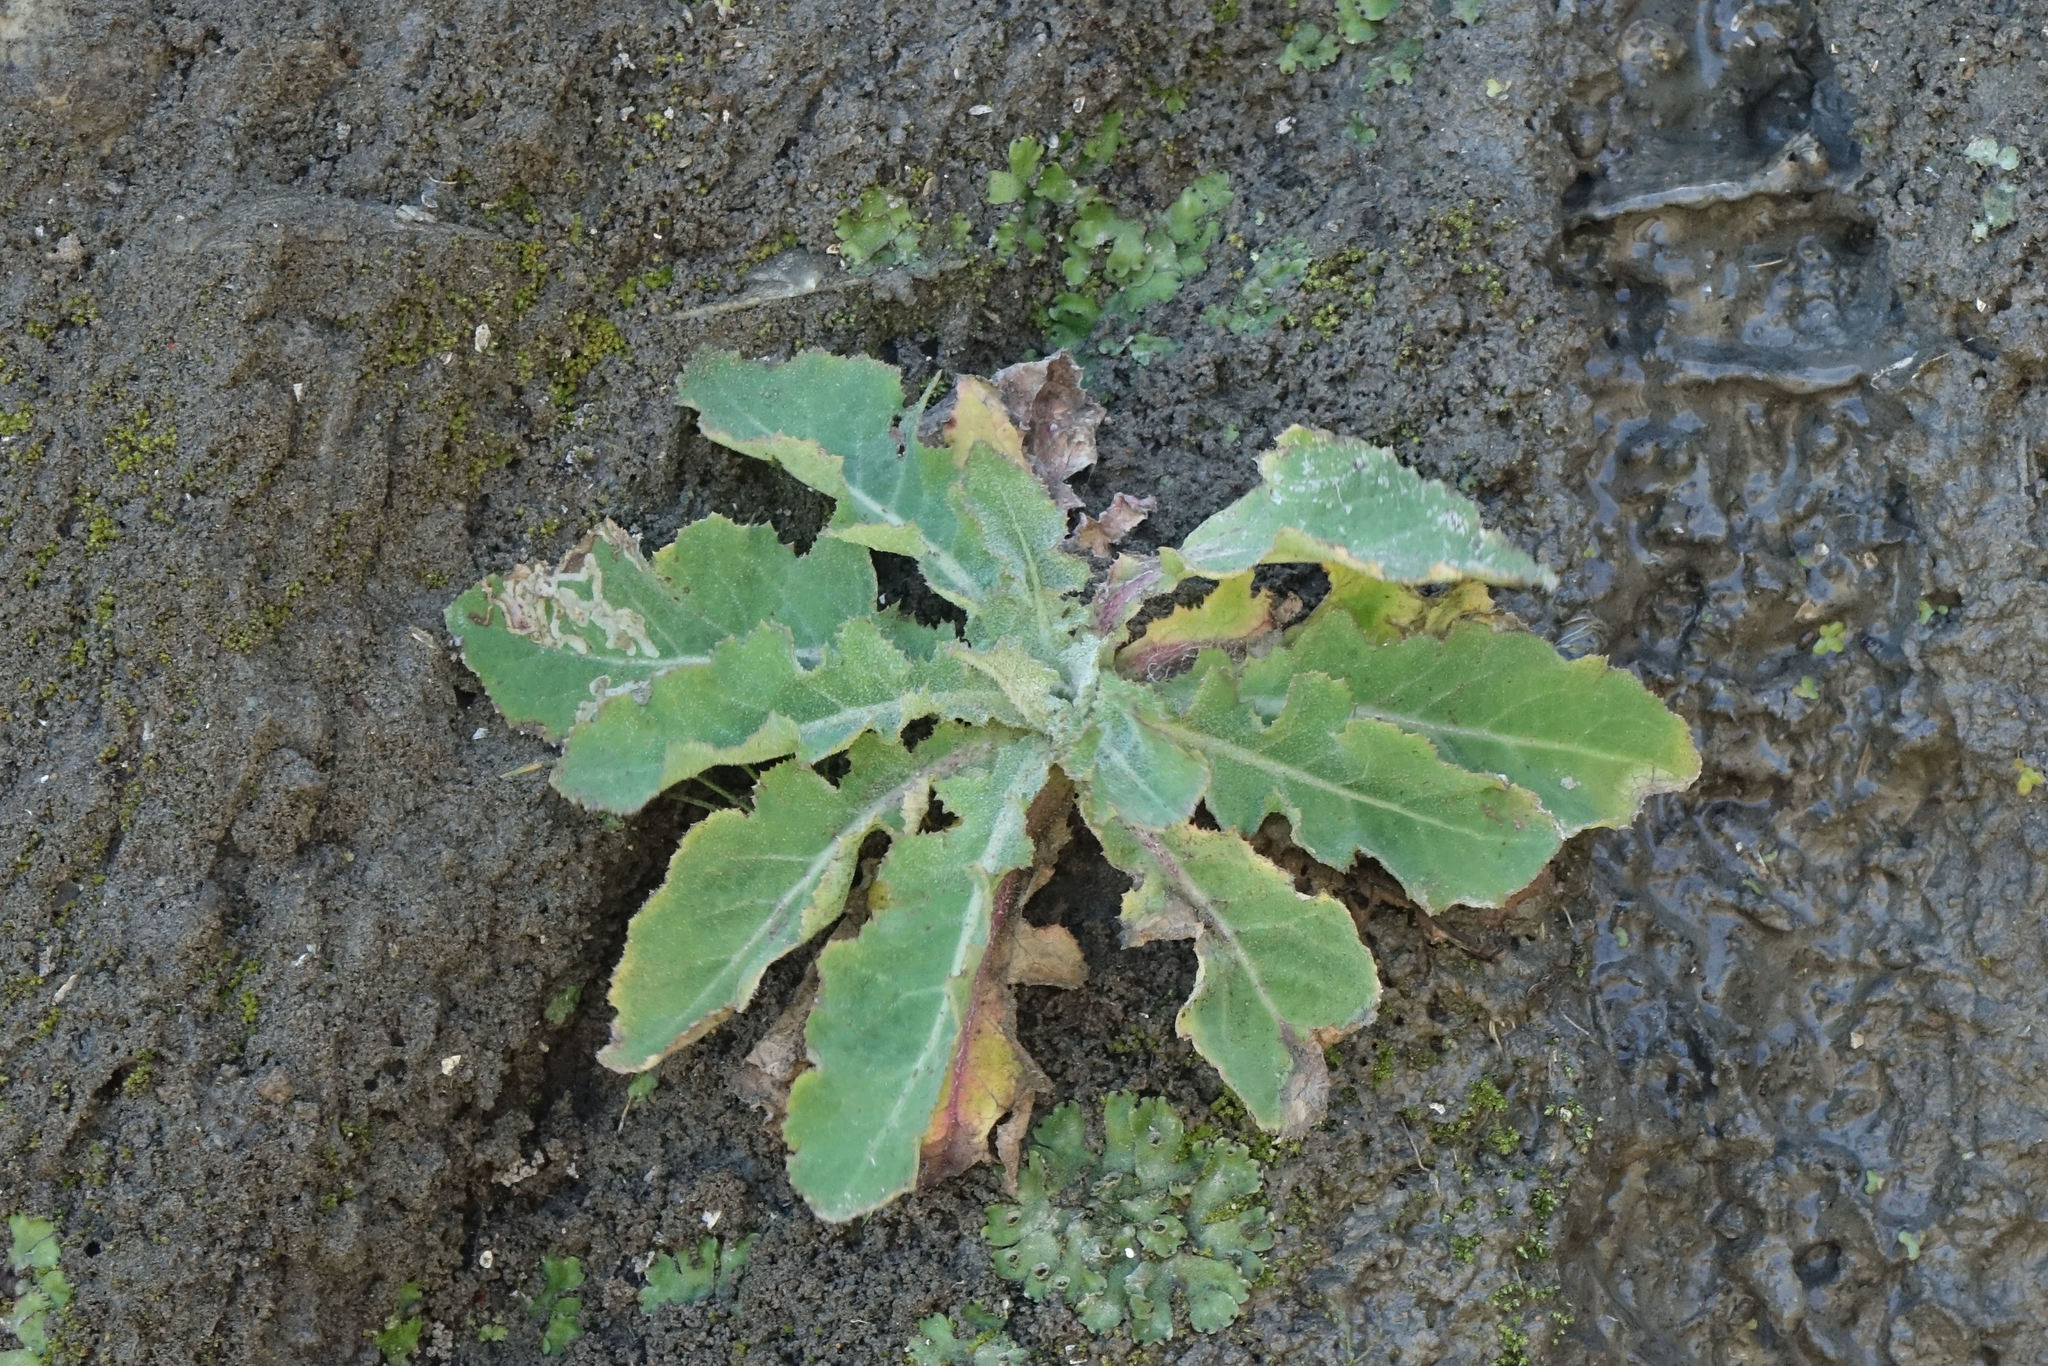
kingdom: Plantae
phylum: Tracheophyta
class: Magnoliopsida
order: Asterales
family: Asteraceae
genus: Sonchus
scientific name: Sonchus kirkii
